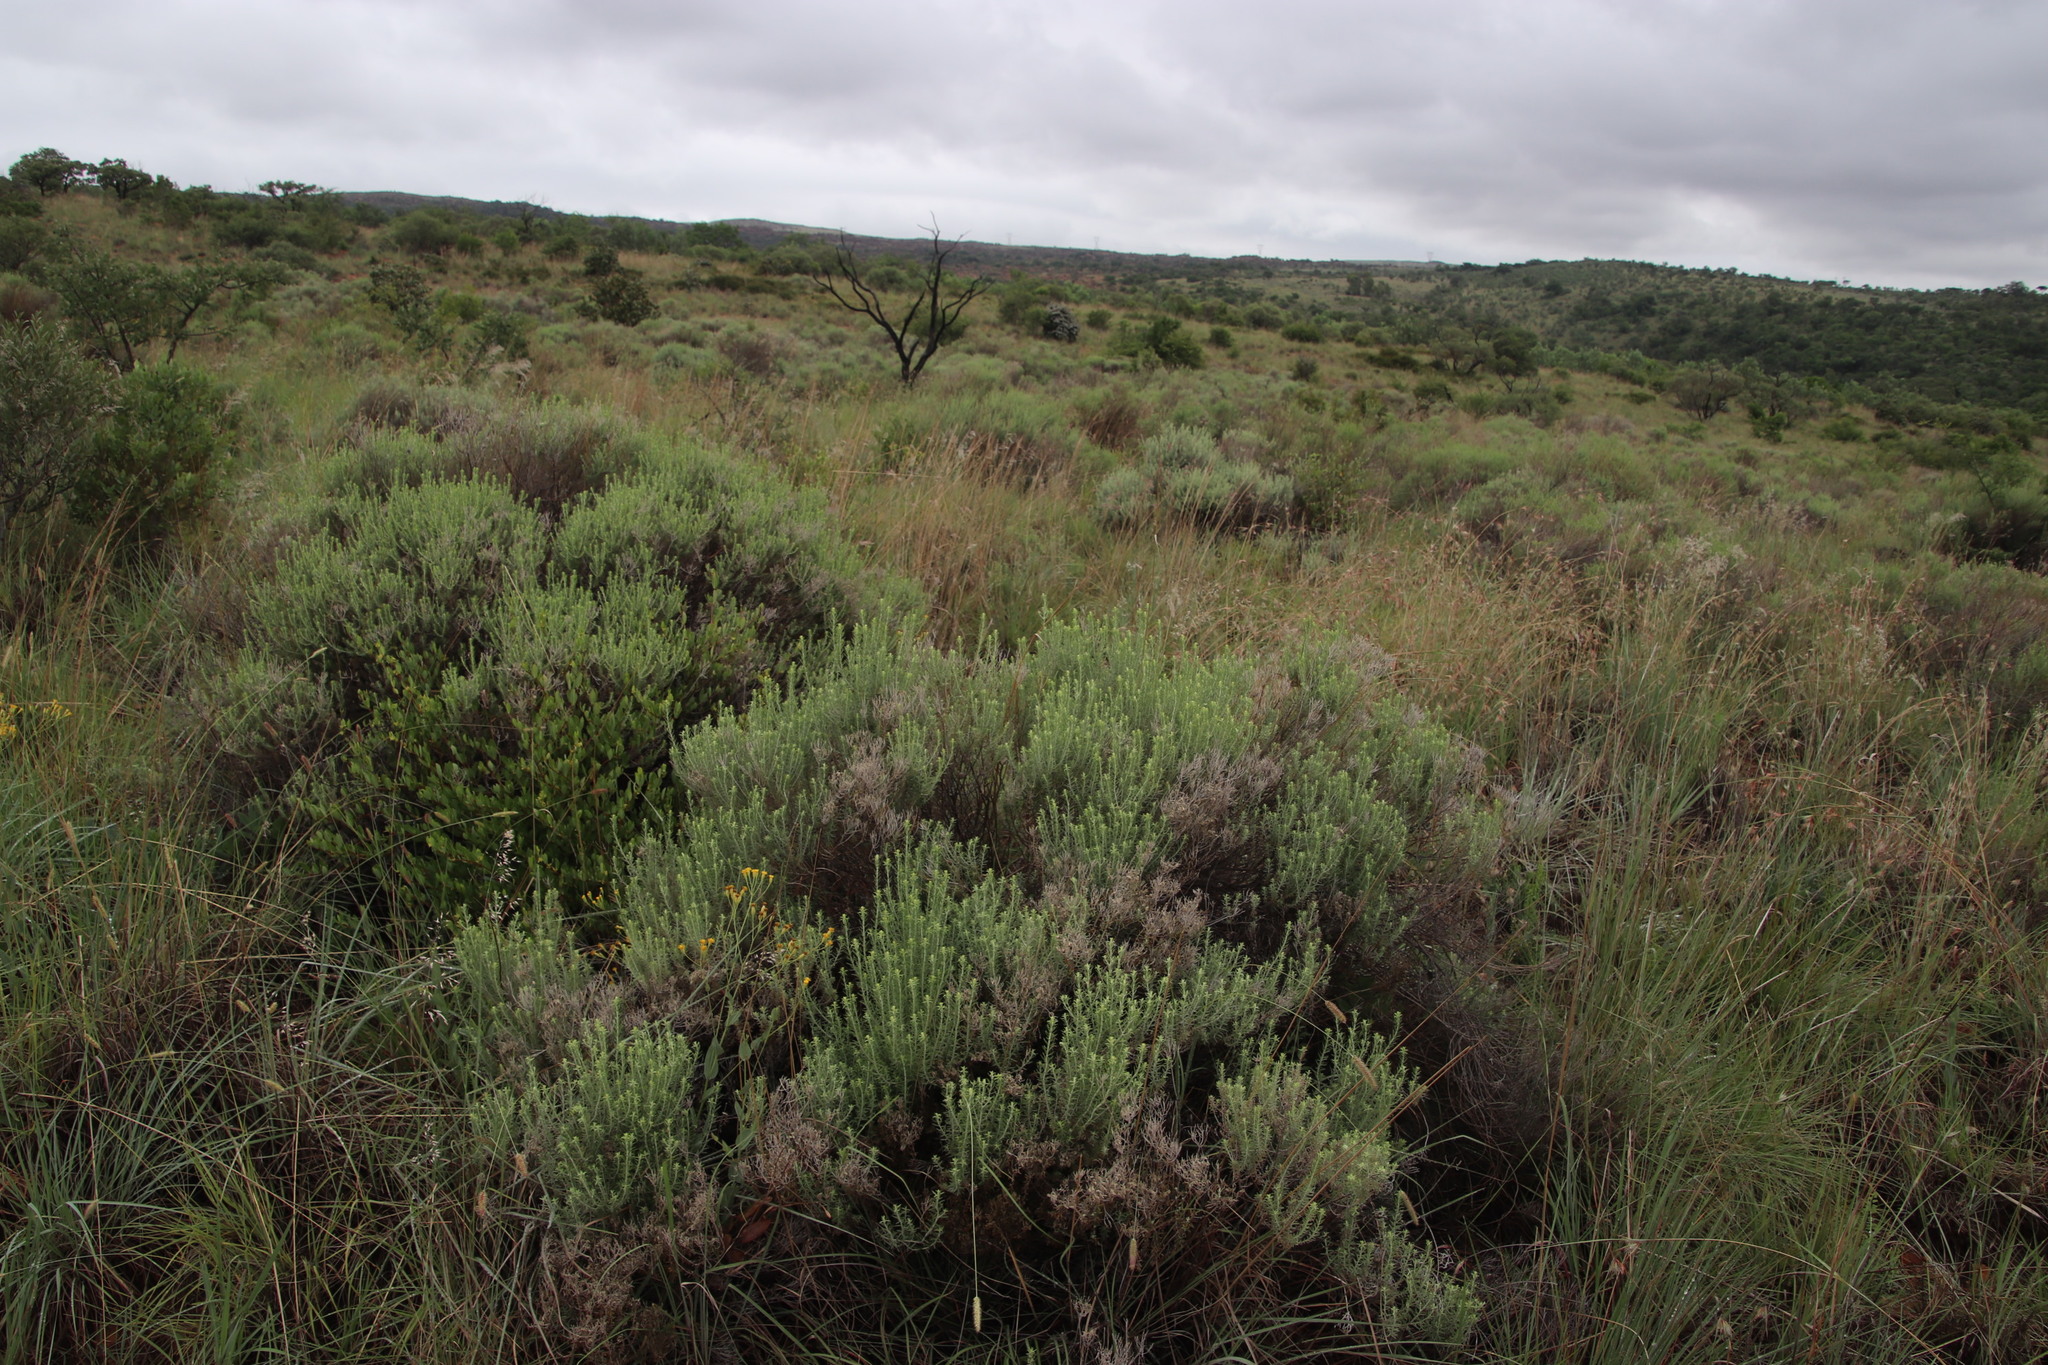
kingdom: Plantae
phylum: Tracheophyta
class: Magnoliopsida
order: Asterales
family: Asteraceae
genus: Helichrysum
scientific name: Helichrysum kraussii
